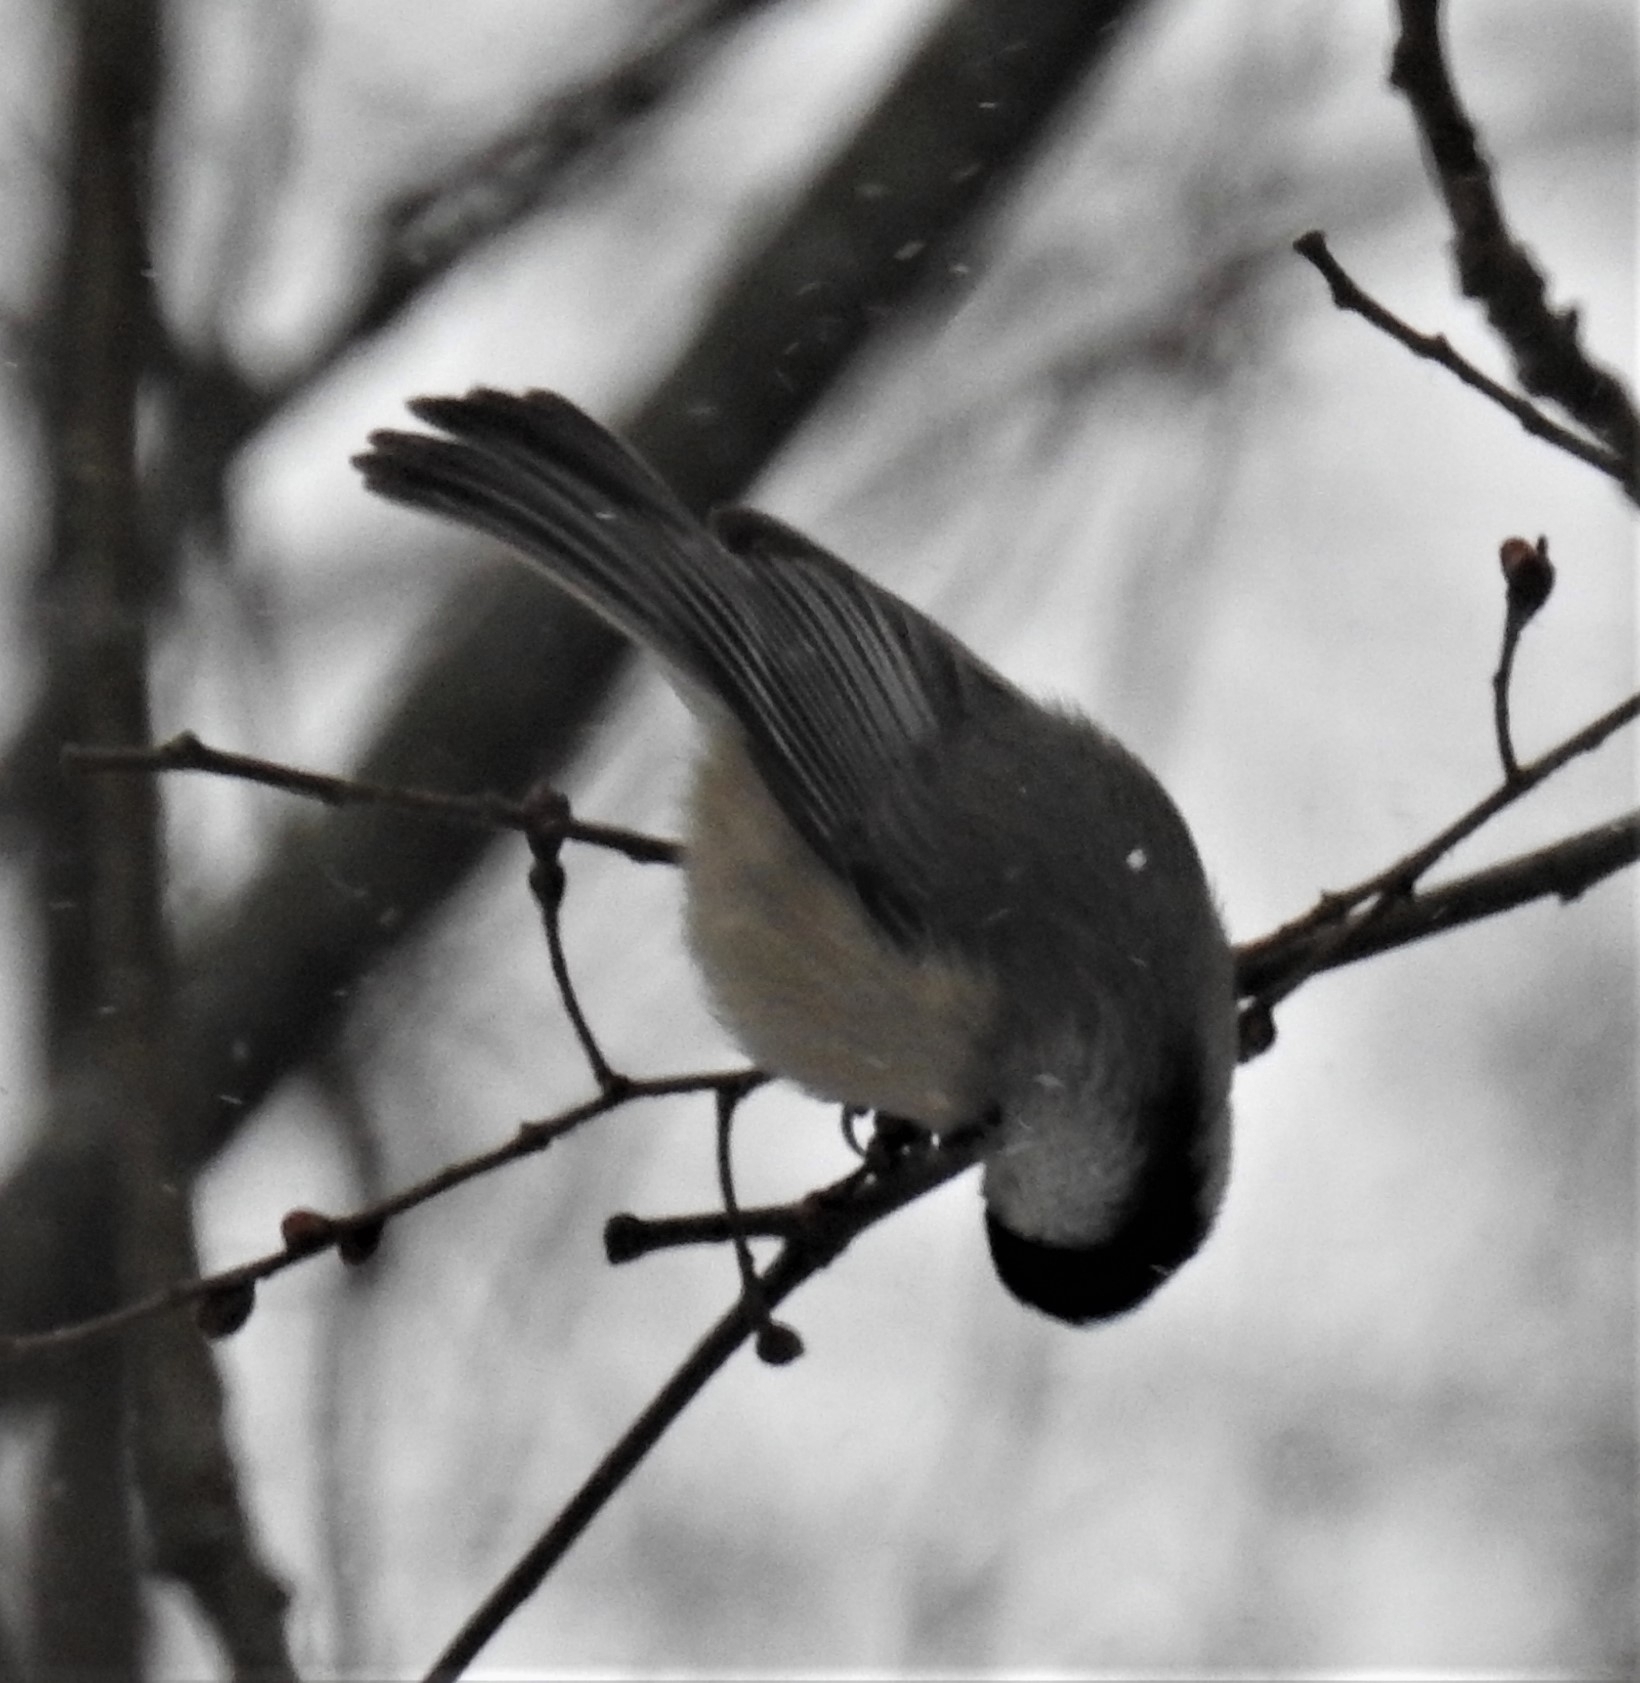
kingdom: Animalia
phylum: Chordata
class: Aves
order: Passeriformes
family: Paridae
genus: Poecile
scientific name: Poecile carolinensis
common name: Carolina chickadee
